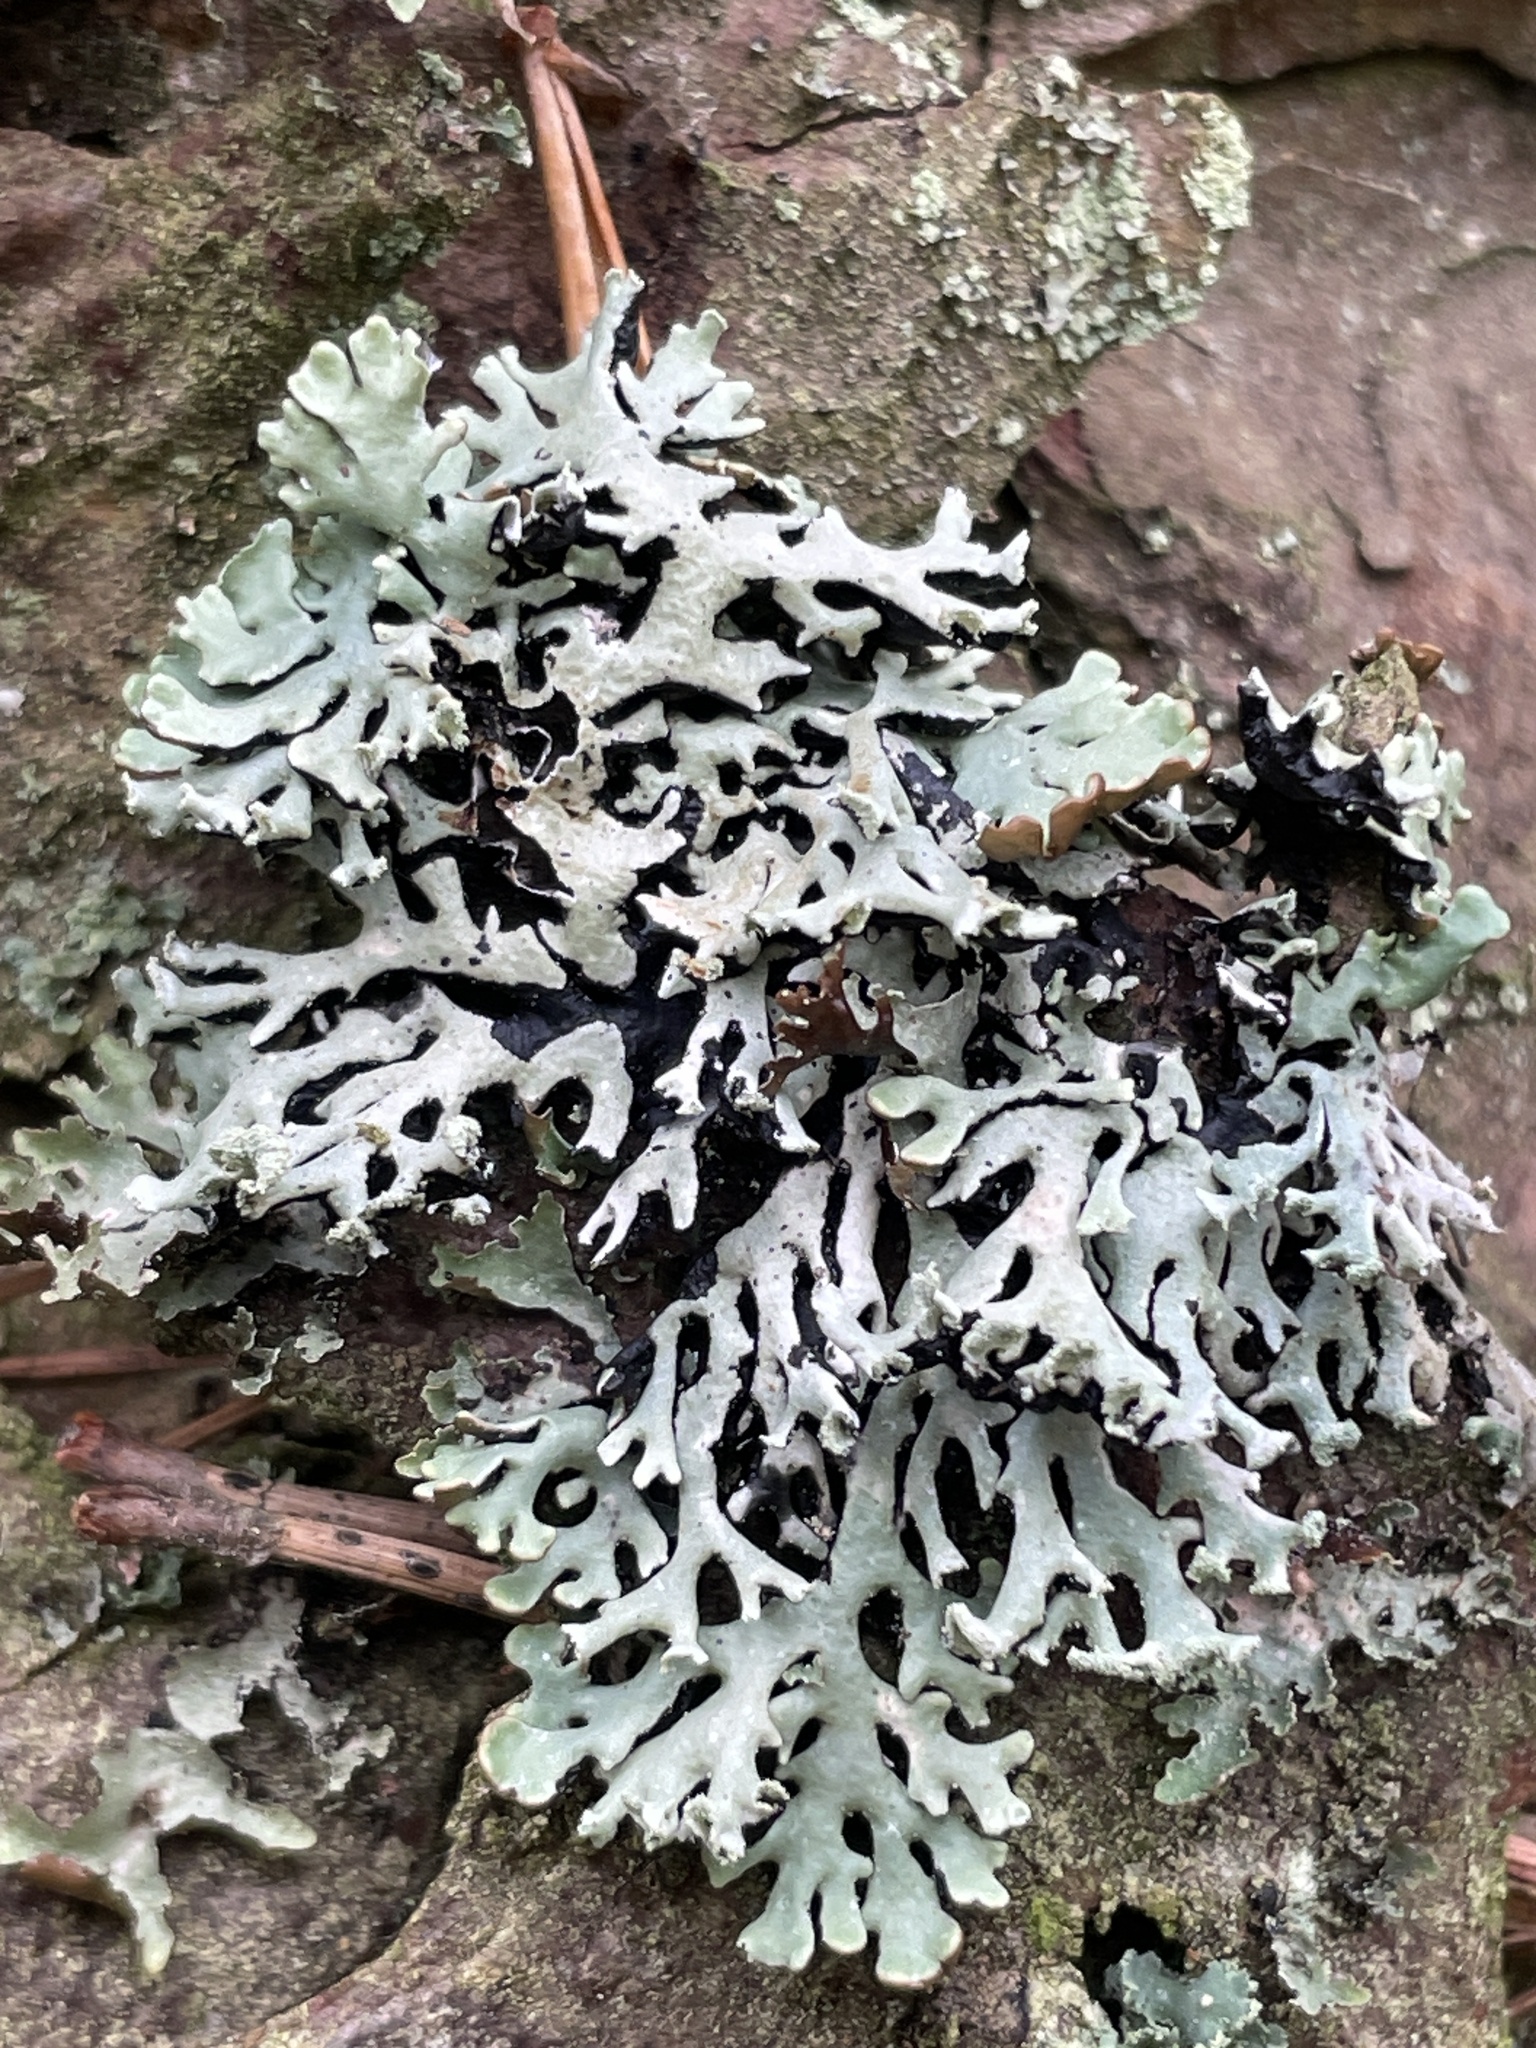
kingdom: Fungi
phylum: Ascomycota
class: Lecanoromycetes
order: Lecanorales
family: Parmeliaceae
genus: Hypogymnia
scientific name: Hypogymnia physodes
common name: Dark crottle
